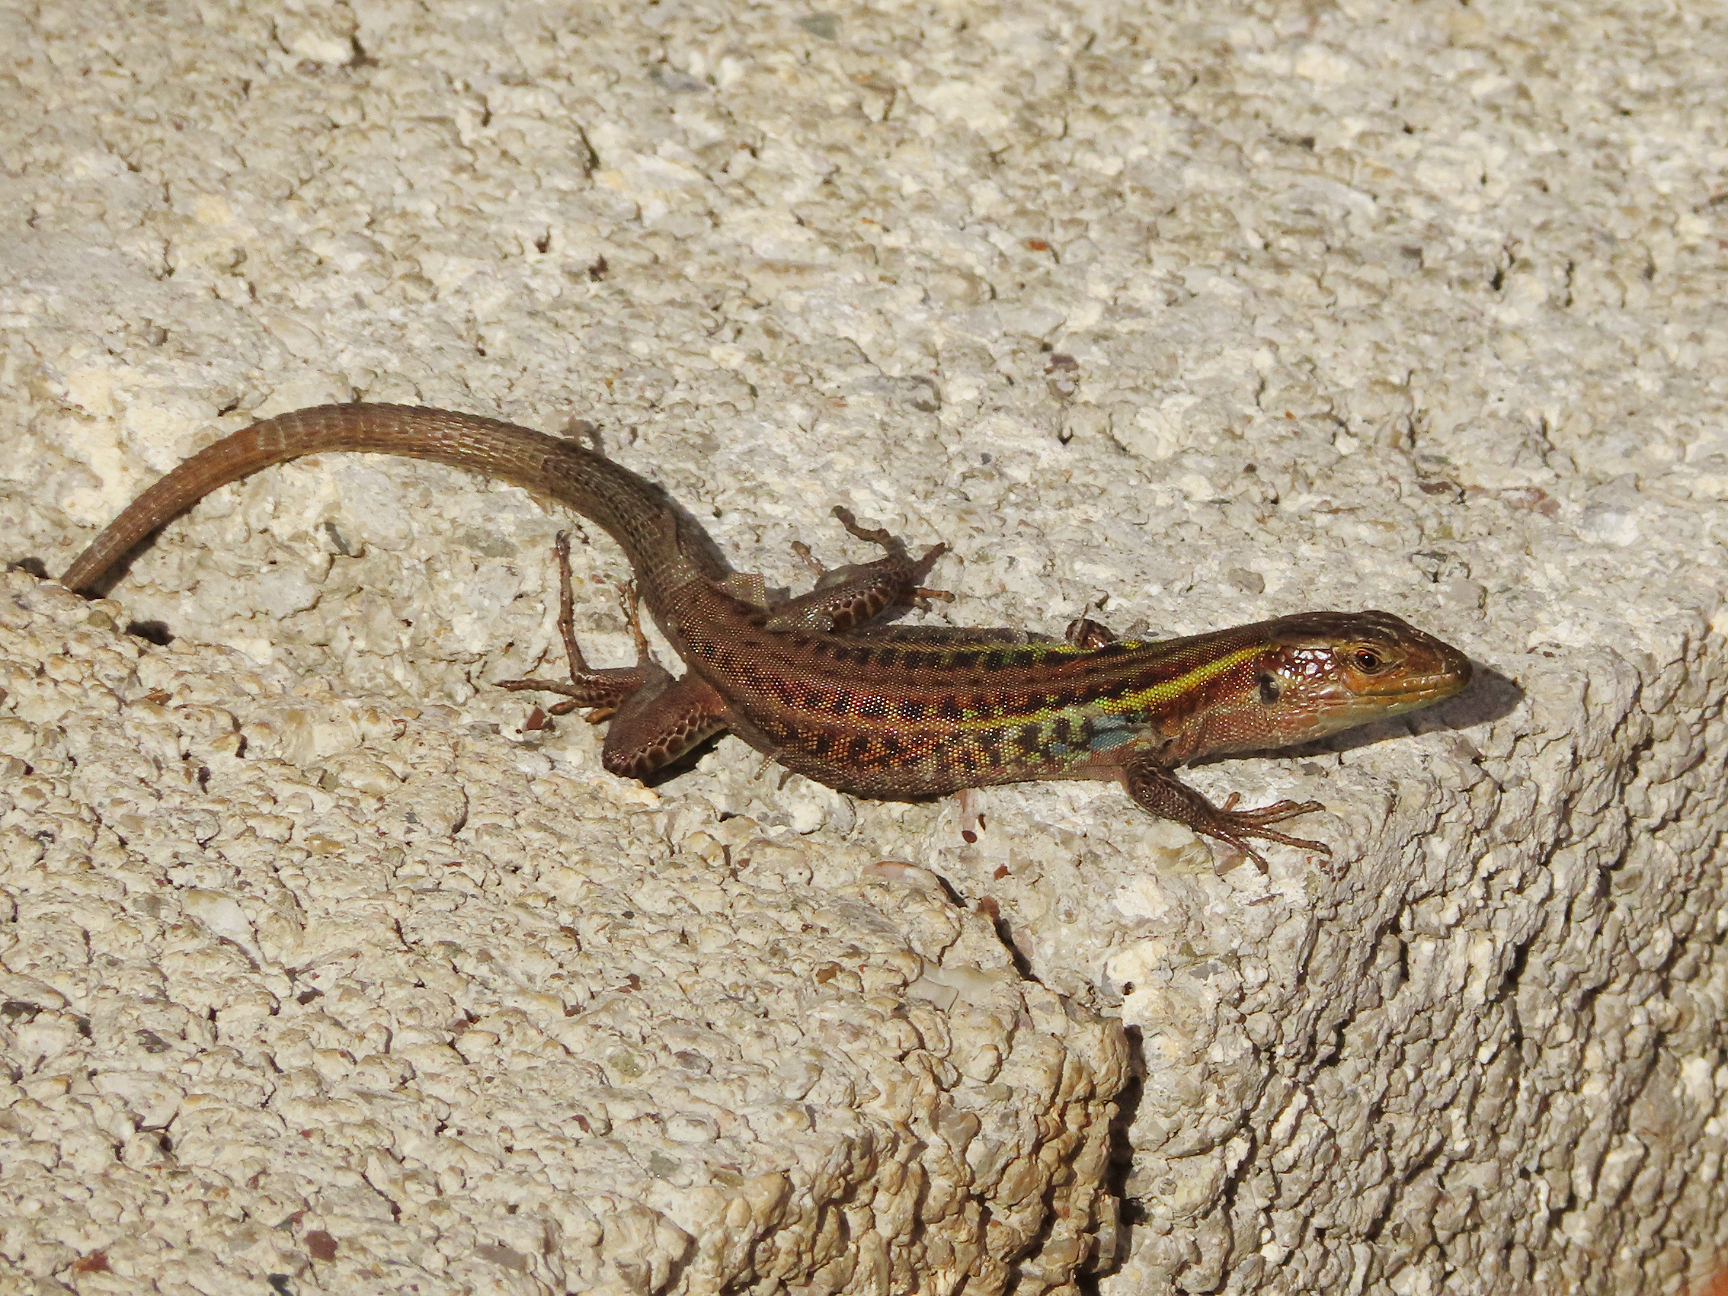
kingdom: Animalia
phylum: Chordata
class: Squamata
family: Lacertidae
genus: Podarcis
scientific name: Podarcis peloponnesiacus
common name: Peloponnese wall lizard
